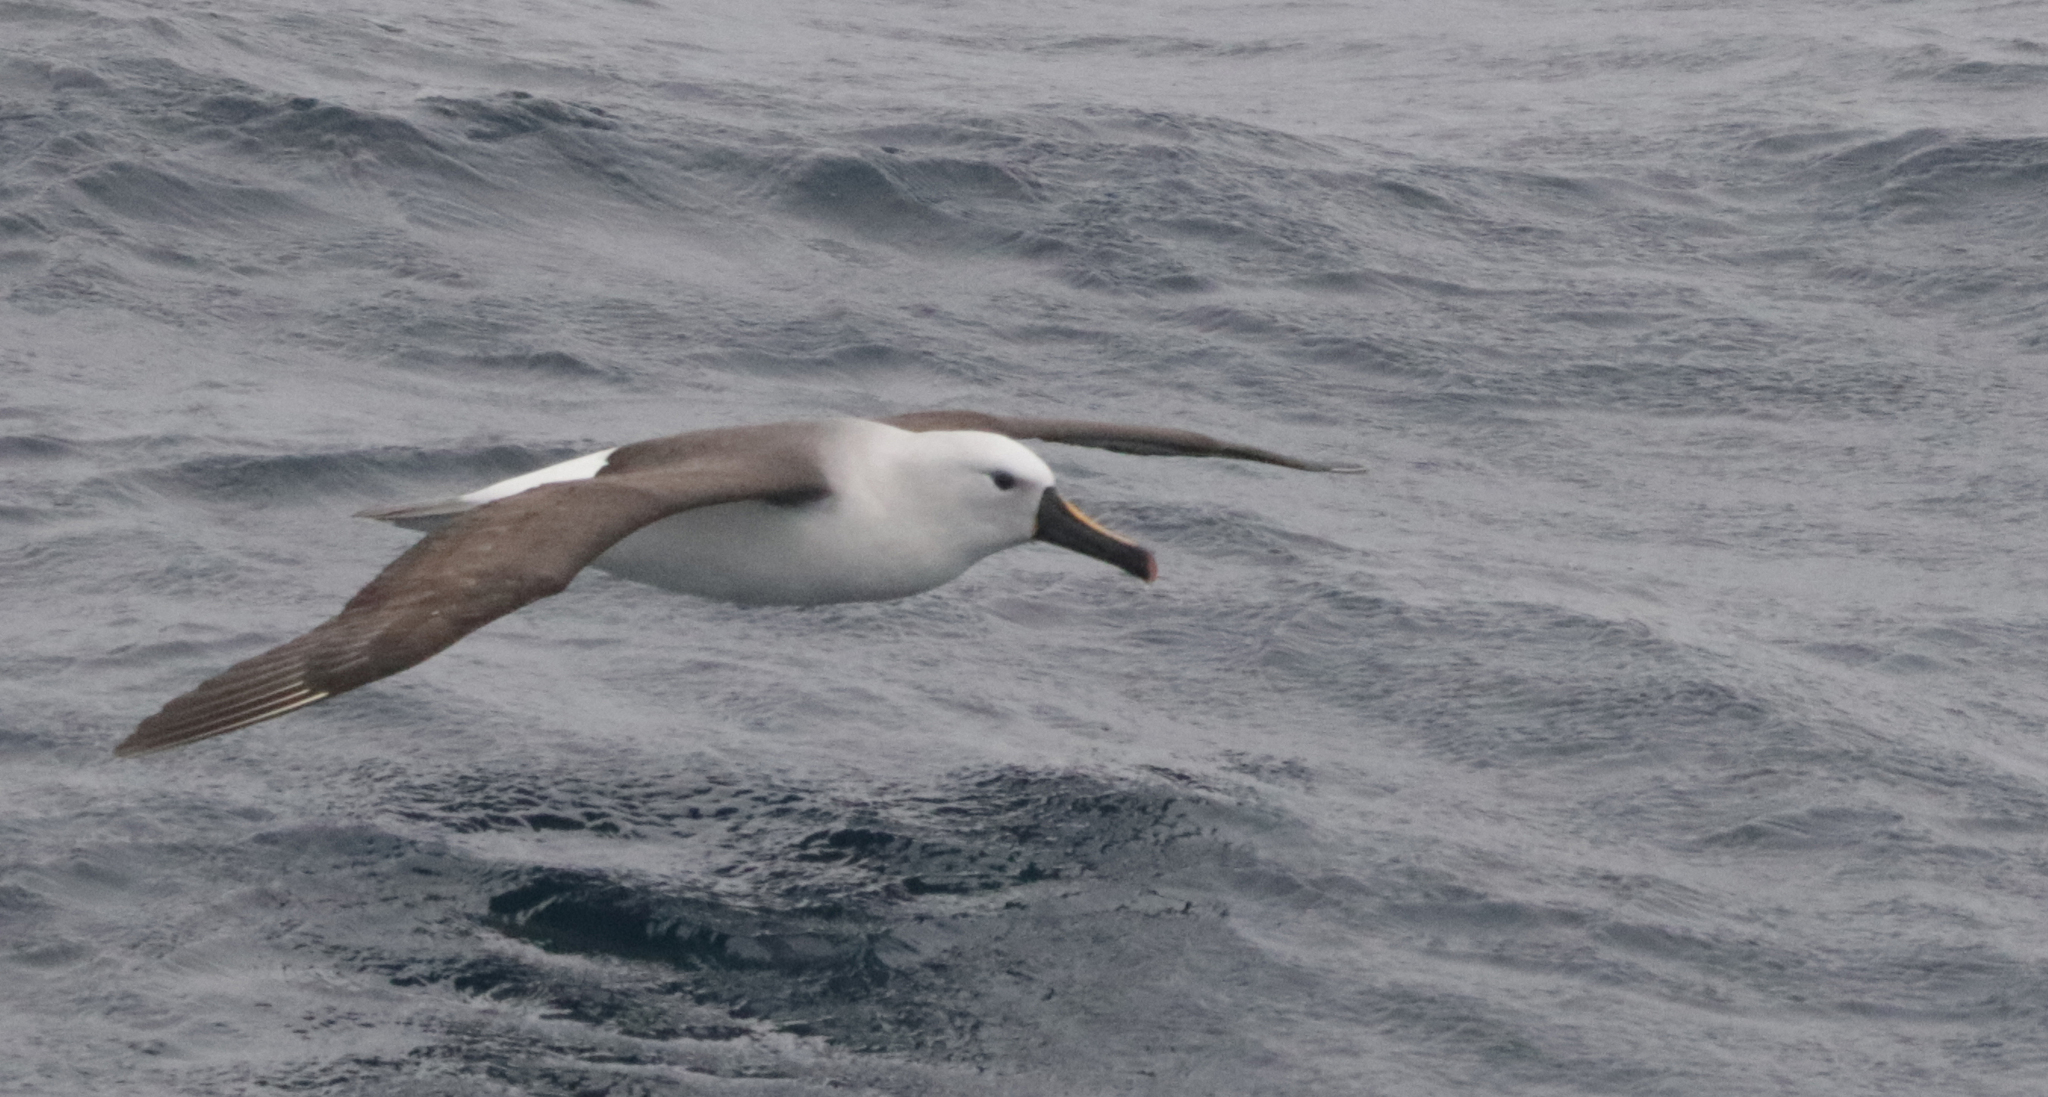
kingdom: Animalia
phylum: Chordata
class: Aves
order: Procellariiformes
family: Diomedeidae
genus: Thalassarche
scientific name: Thalassarche chlororhynchos
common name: Atlantic yellow-nosed albatross
